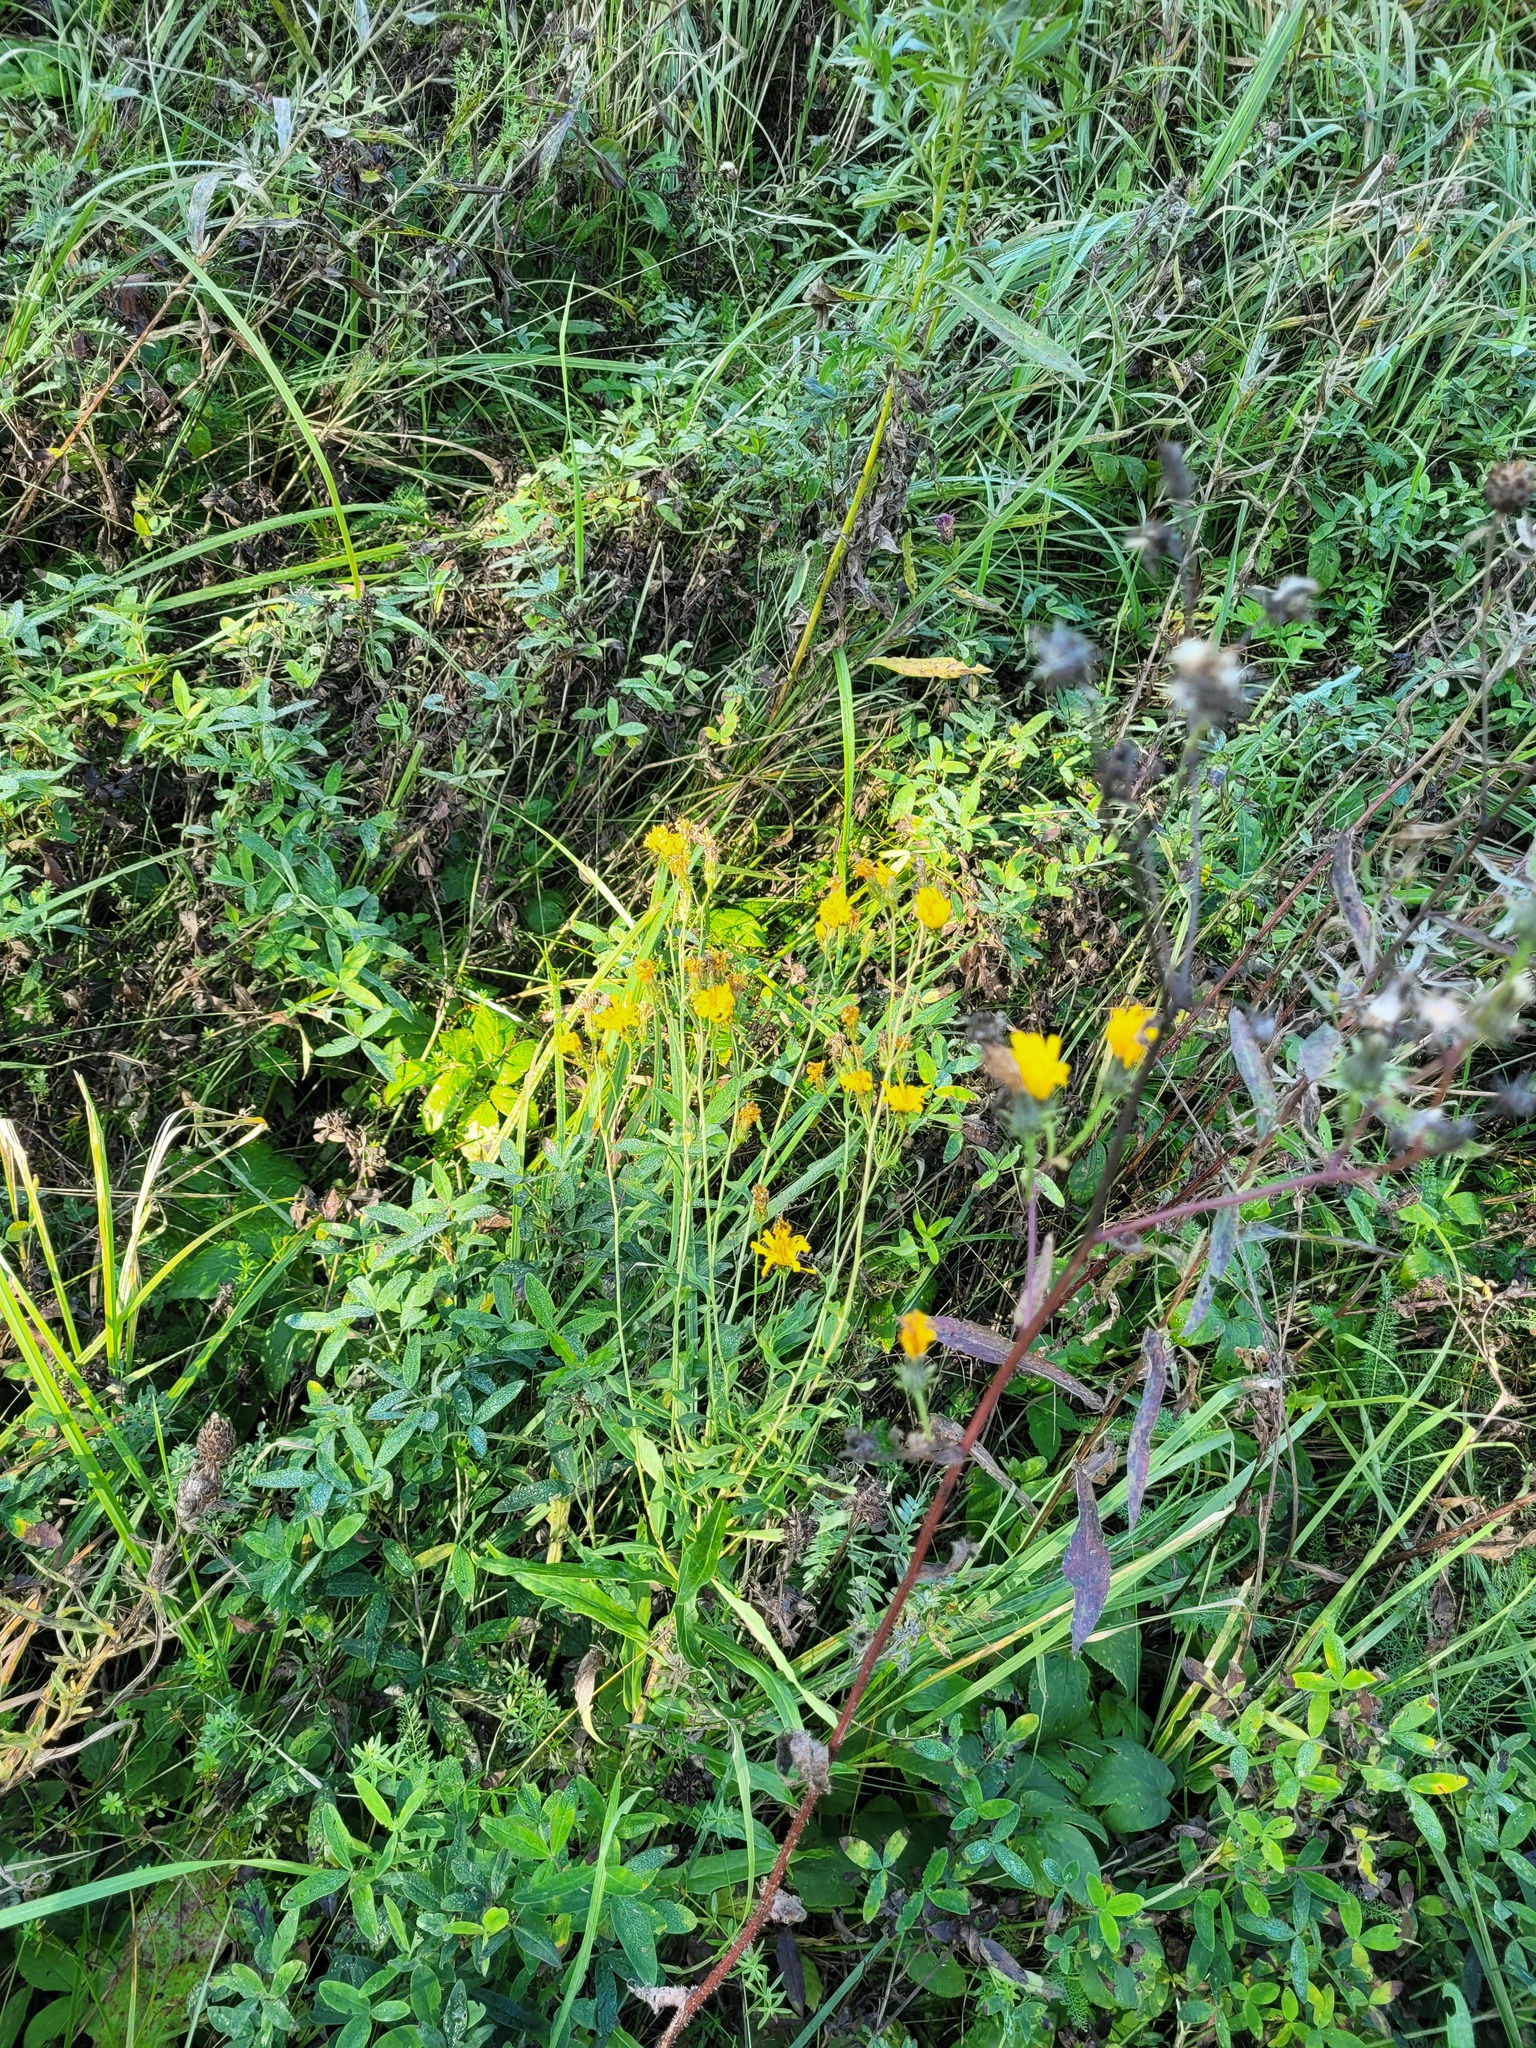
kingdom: Plantae
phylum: Tracheophyta
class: Magnoliopsida
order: Asterales
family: Asteraceae
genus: Hieracium
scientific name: Hieracium umbellatum
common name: Northern hawkweed
